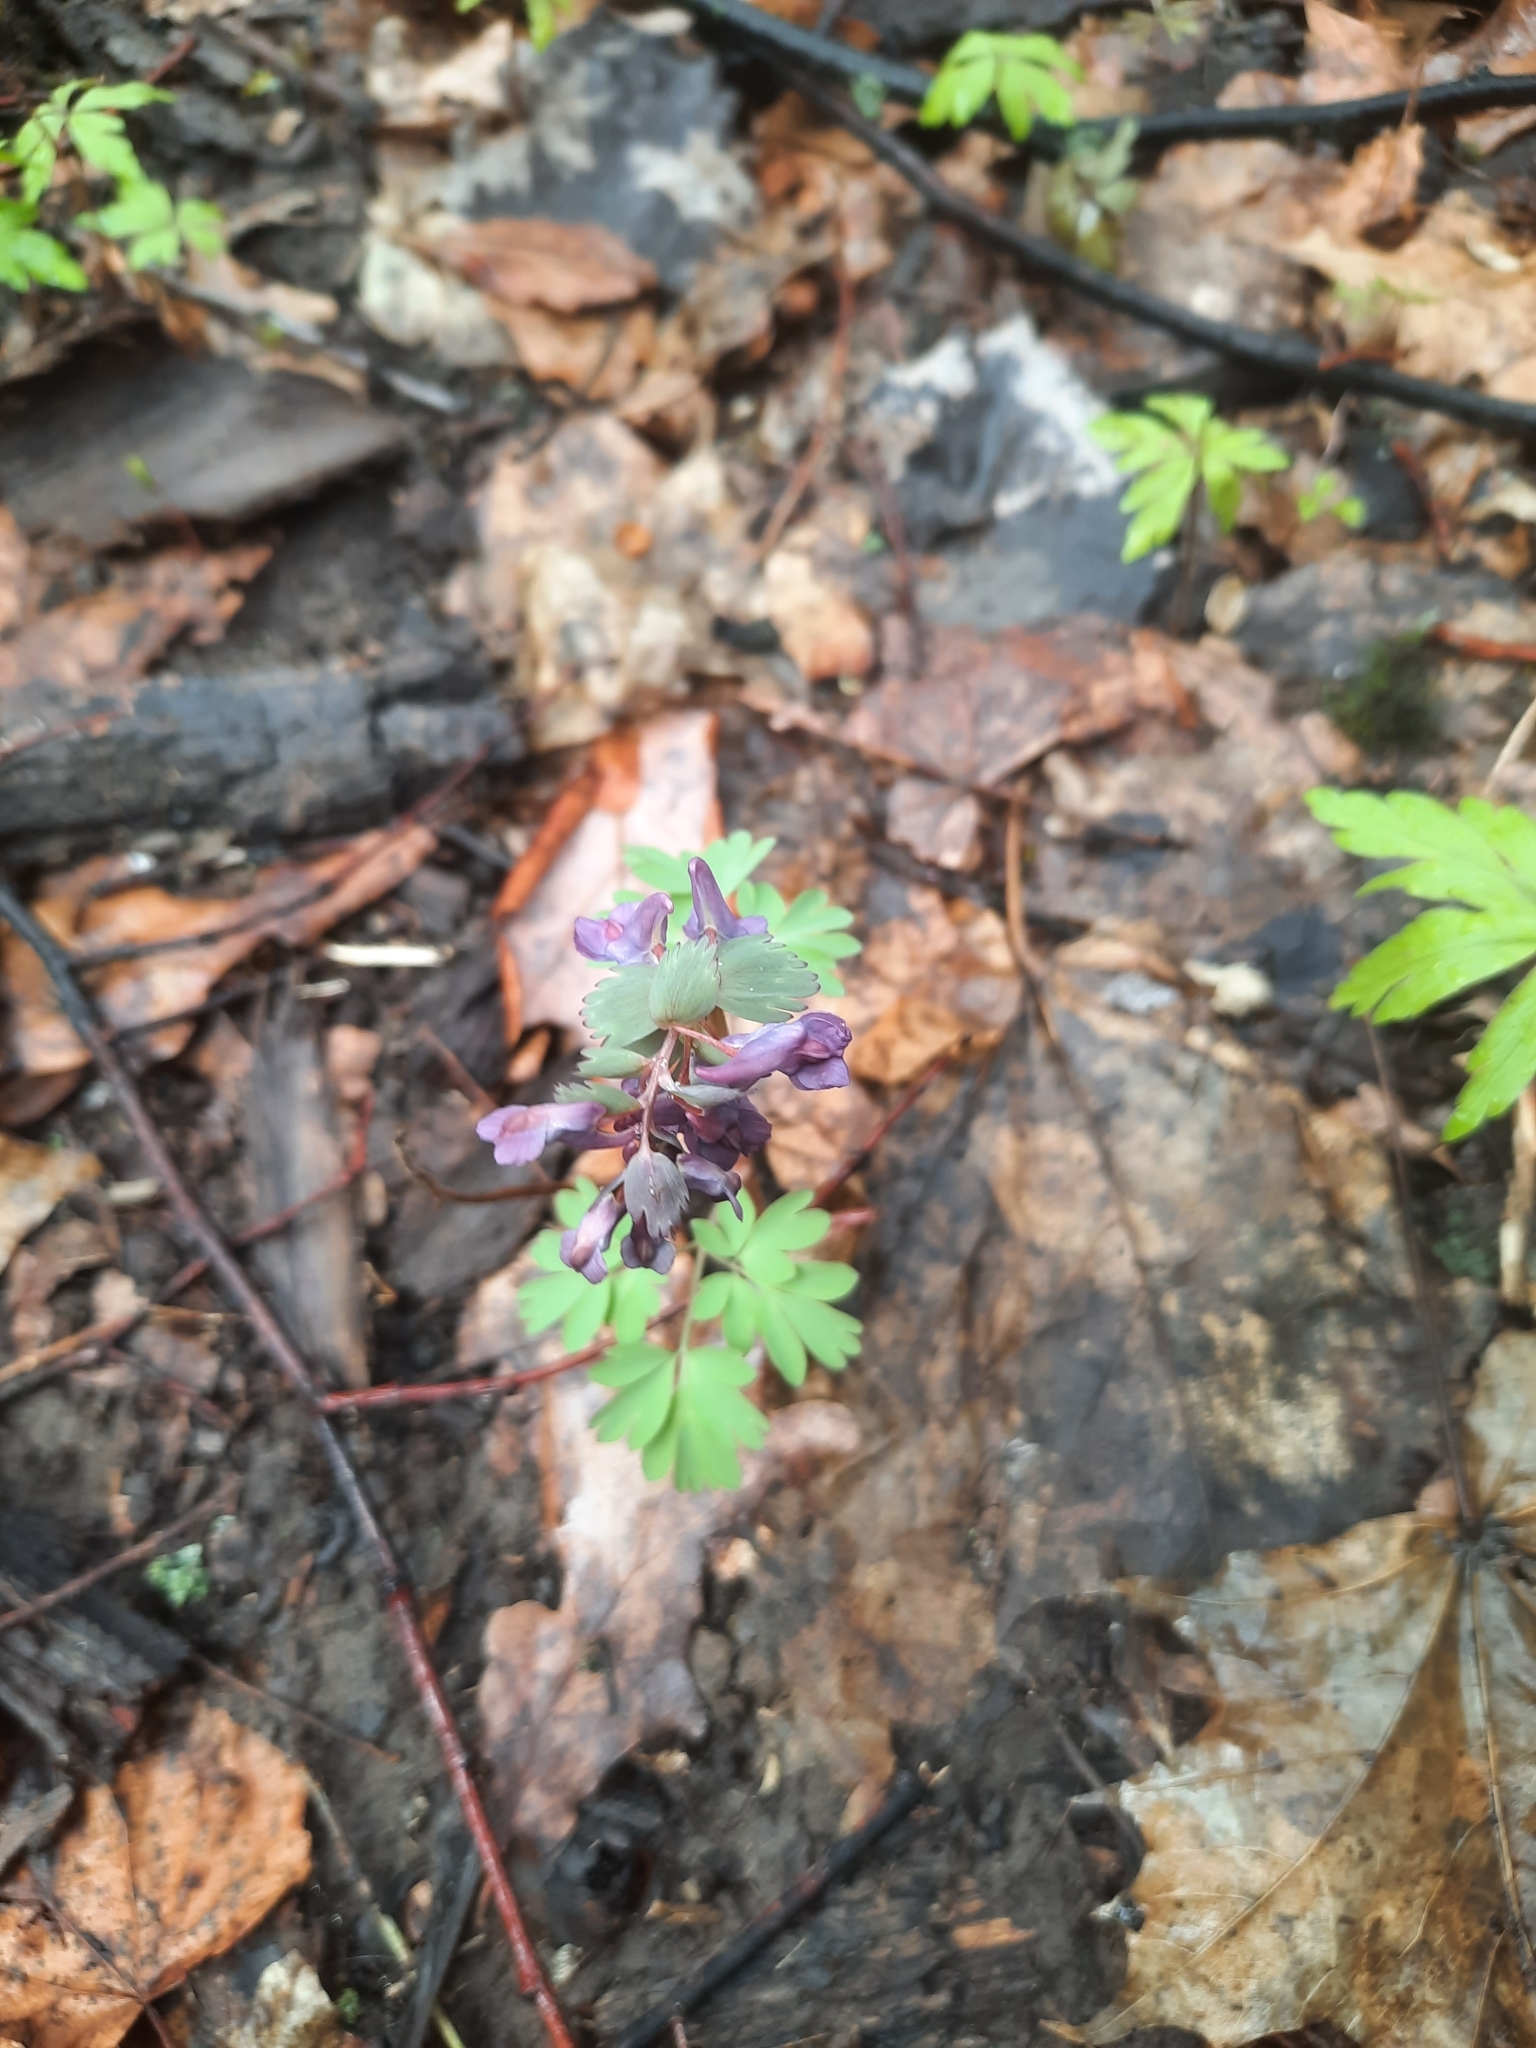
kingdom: Plantae
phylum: Tracheophyta
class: Magnoliopsida
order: Ranunculales
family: Papaveraceae
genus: Corydalis
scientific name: Corydalis solida
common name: Bird-in-a-bush
